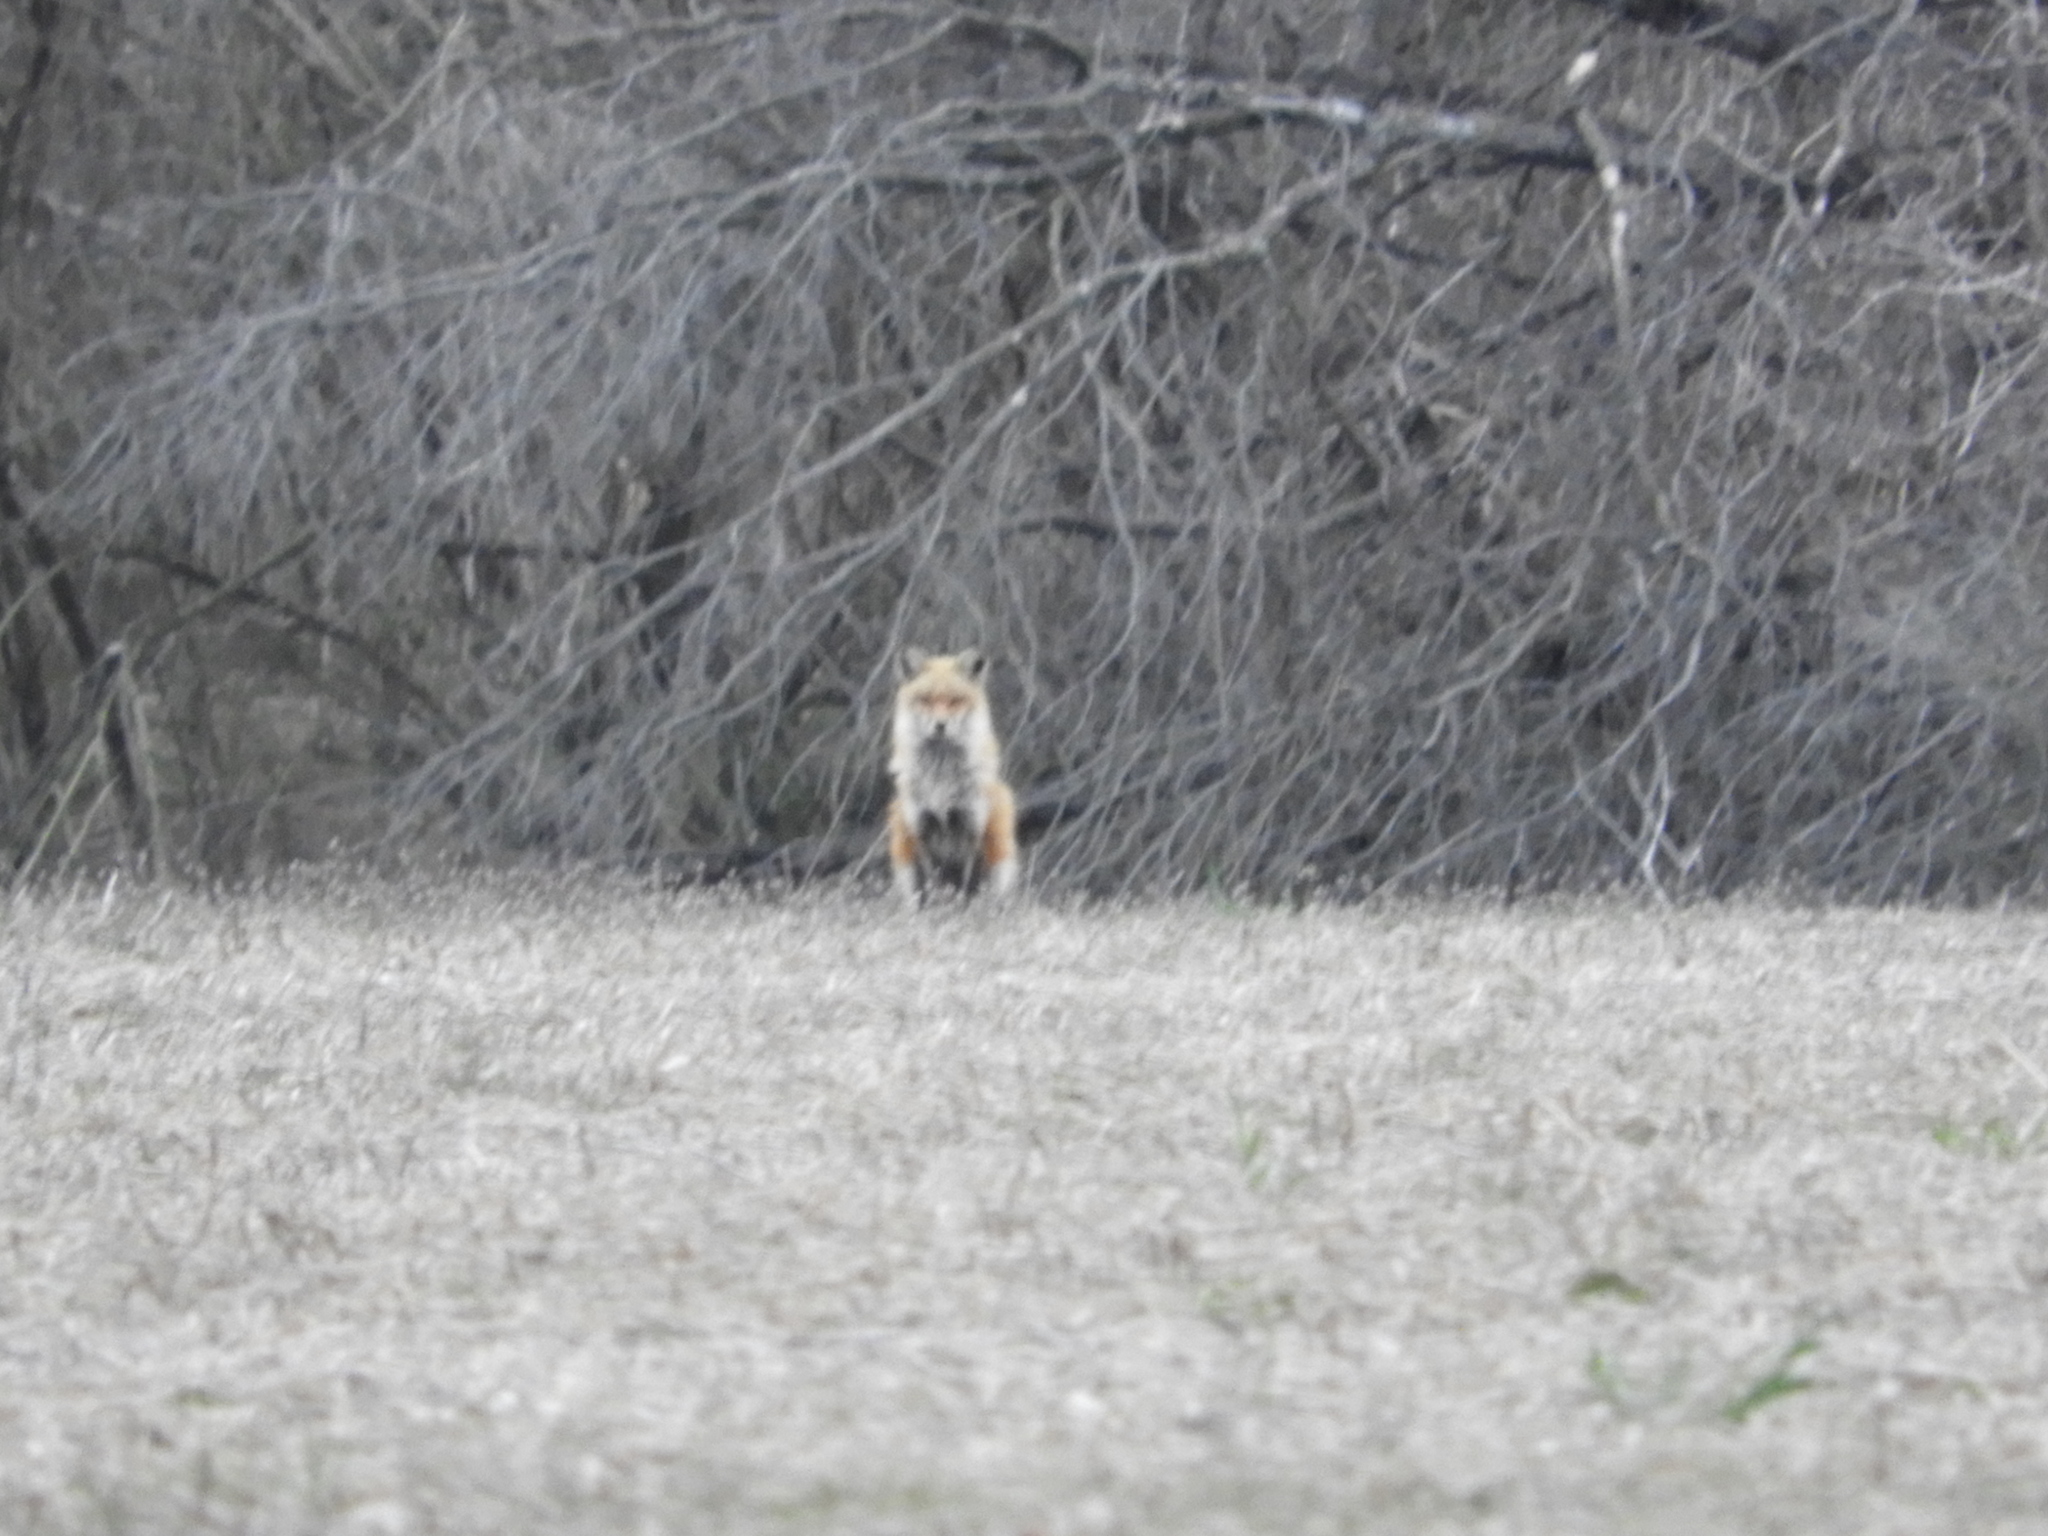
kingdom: Animalia
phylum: Chordata
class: Mammalia
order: Carnivora
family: Canidae
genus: Vulpes
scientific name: Vulpes vulpes
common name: Red fox
